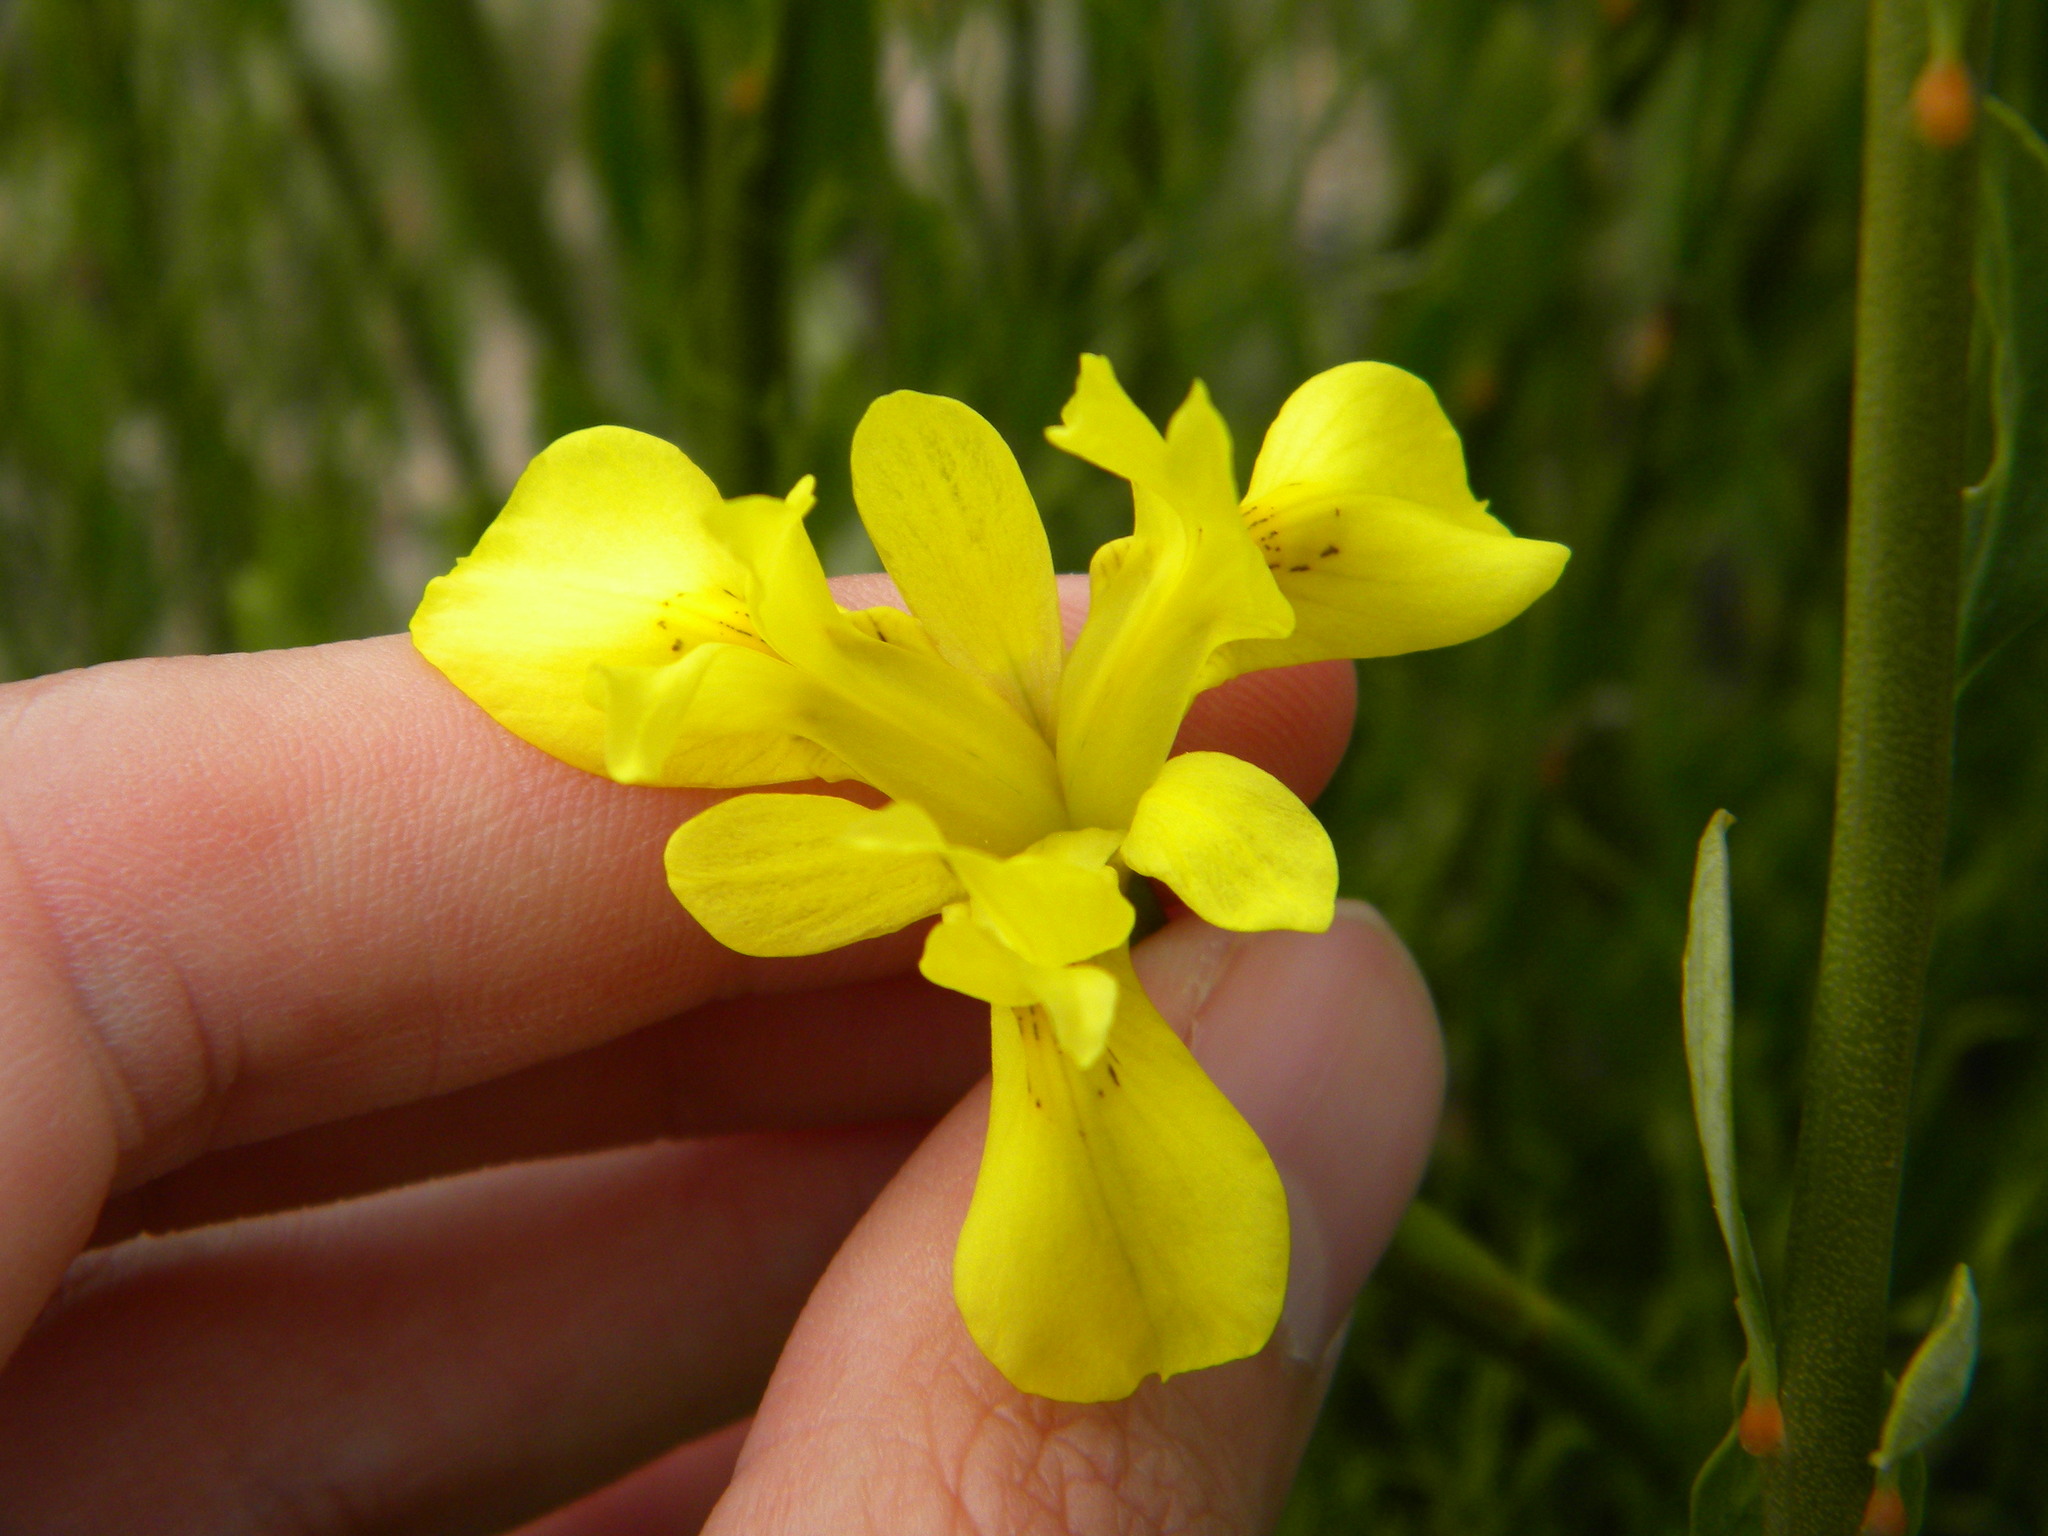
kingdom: Plantae
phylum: Tracheophyta
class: Liliopsida
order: Asparagales
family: Iridaceae
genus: Moraea
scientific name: Moraea neglecta
